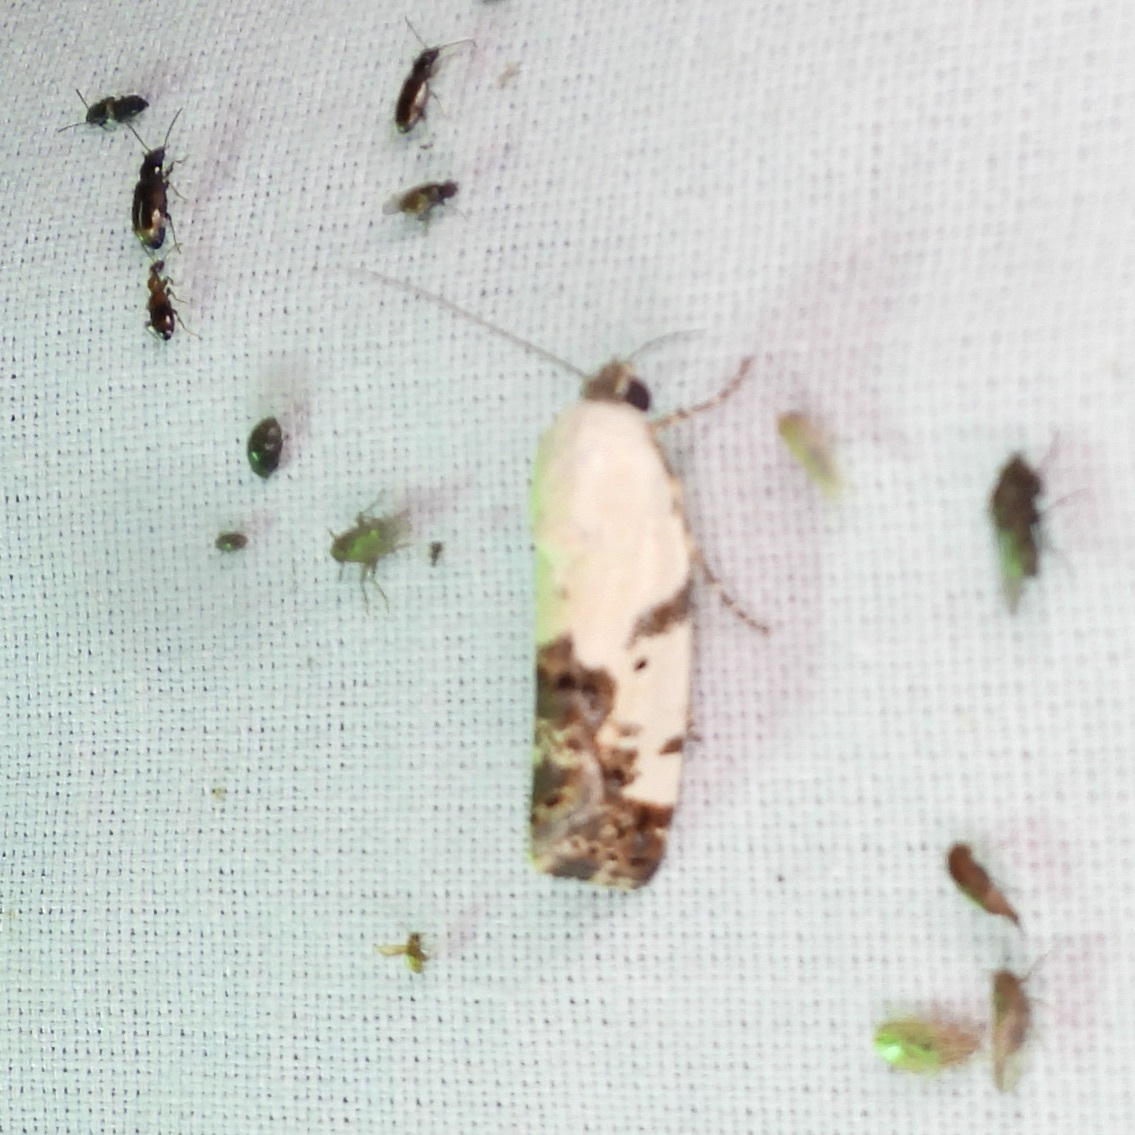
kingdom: Animalia
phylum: Arthropoda
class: Insecta
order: Lepidoptera
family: Noctuidae
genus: Acontia
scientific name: Acontia aprica
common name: Nun
